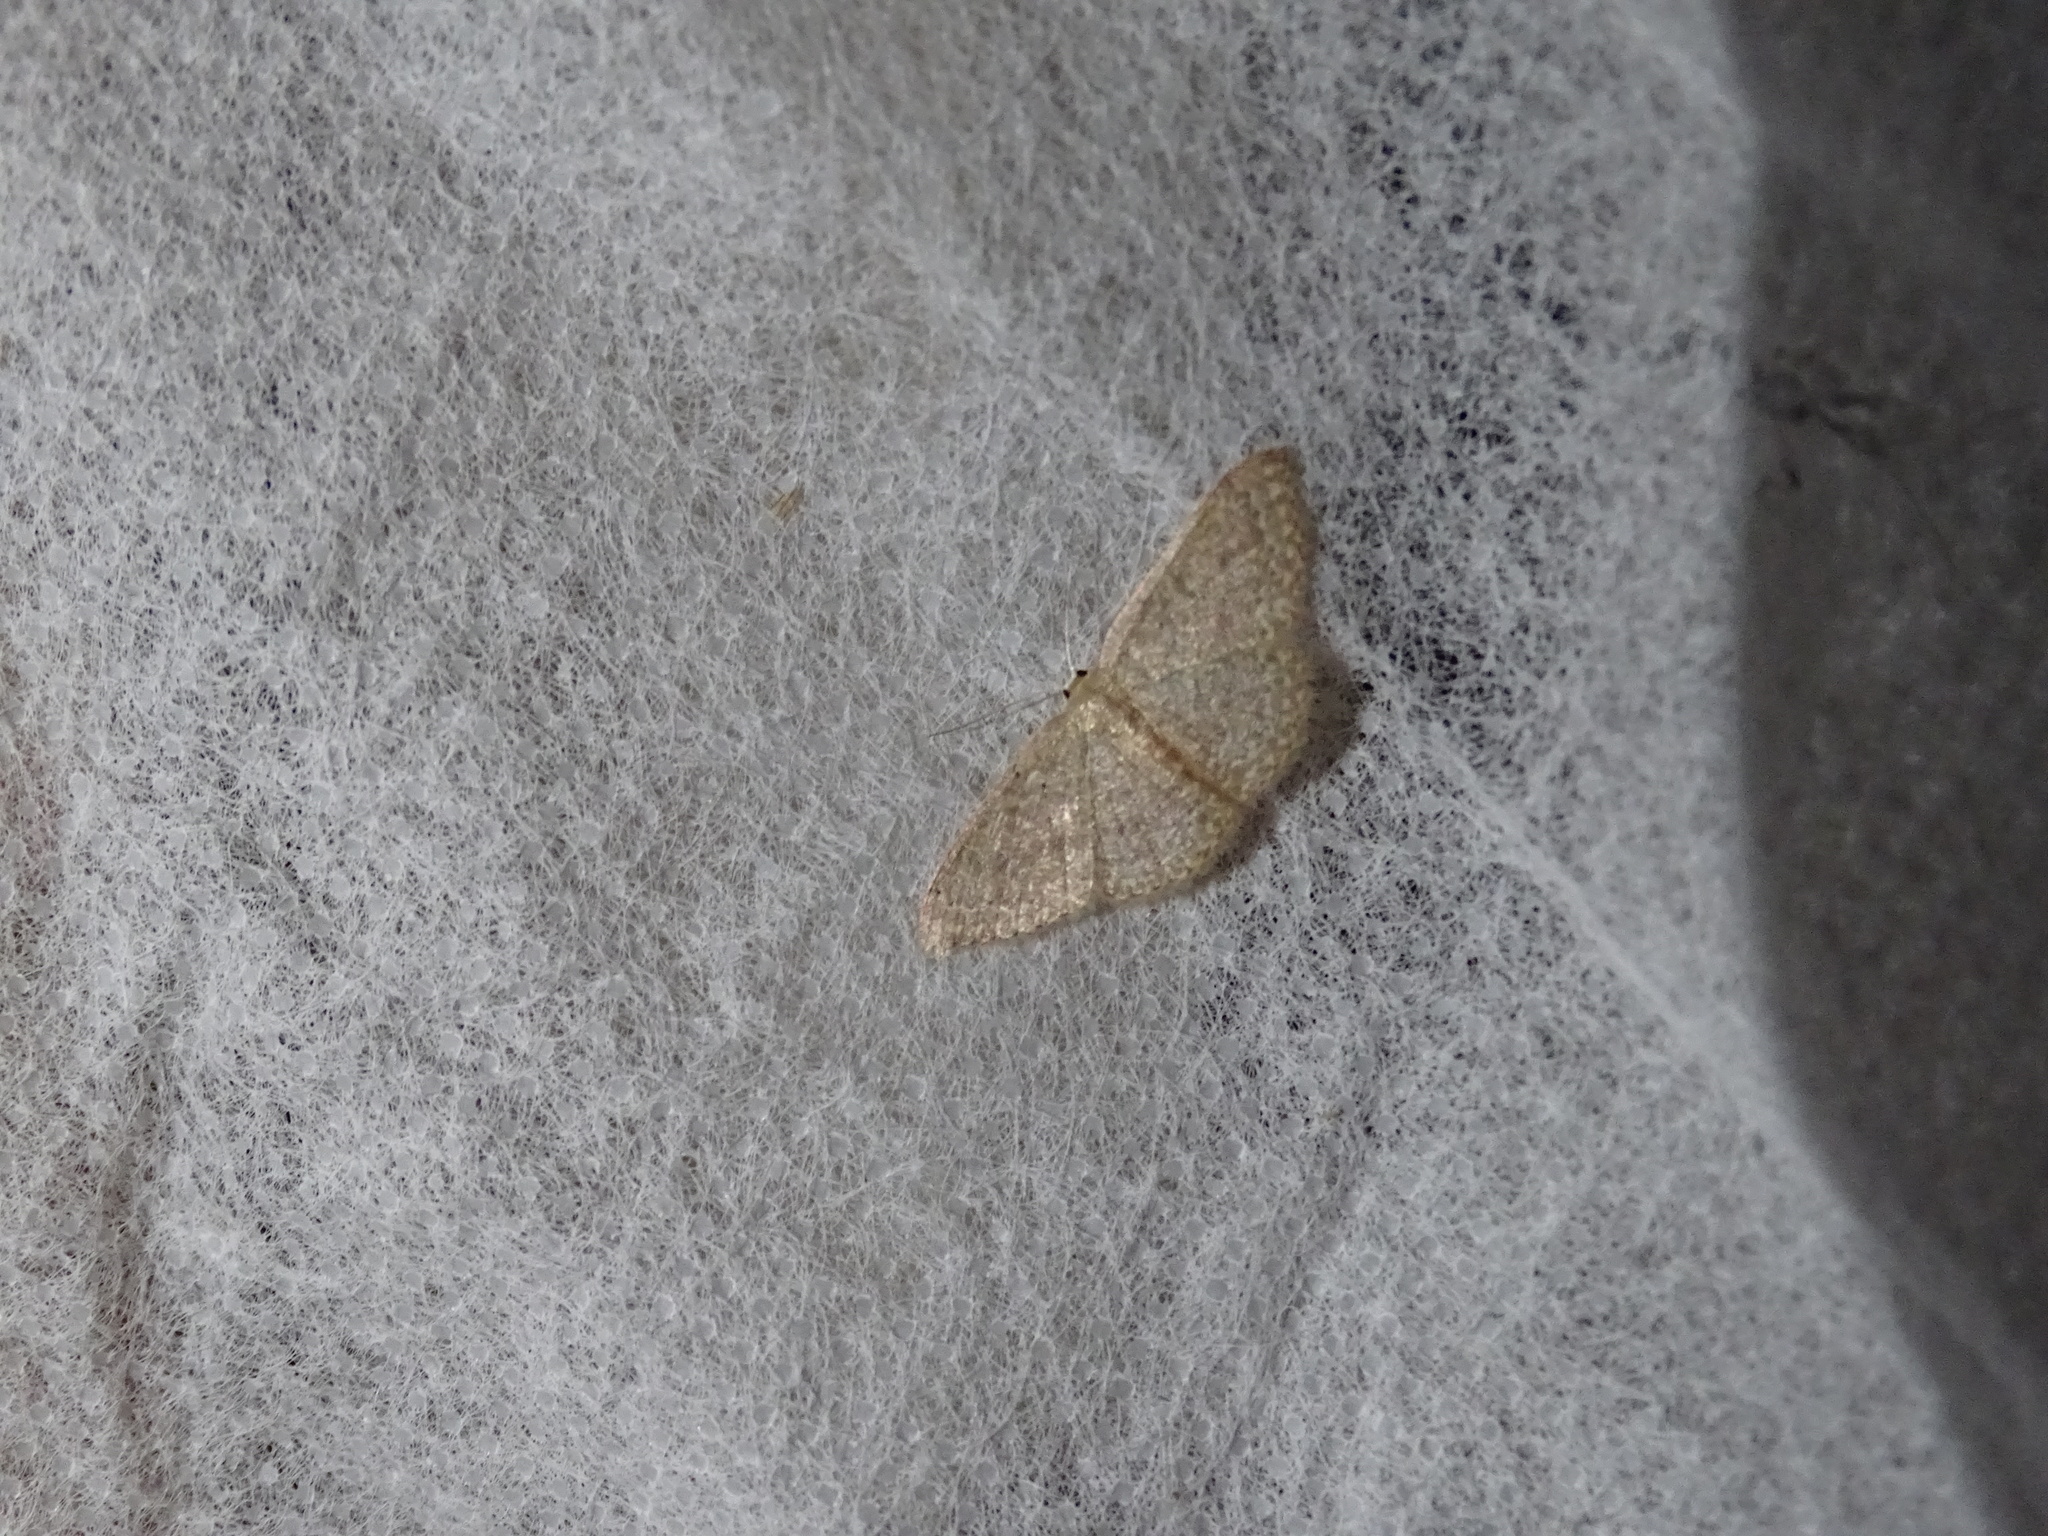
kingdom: Animalia
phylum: Arthropoda
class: Insecta
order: Lepidoptera
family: Geometridae
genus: Pleuroprucha
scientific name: Pleuroprucha insulsaria
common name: Common tan wave
